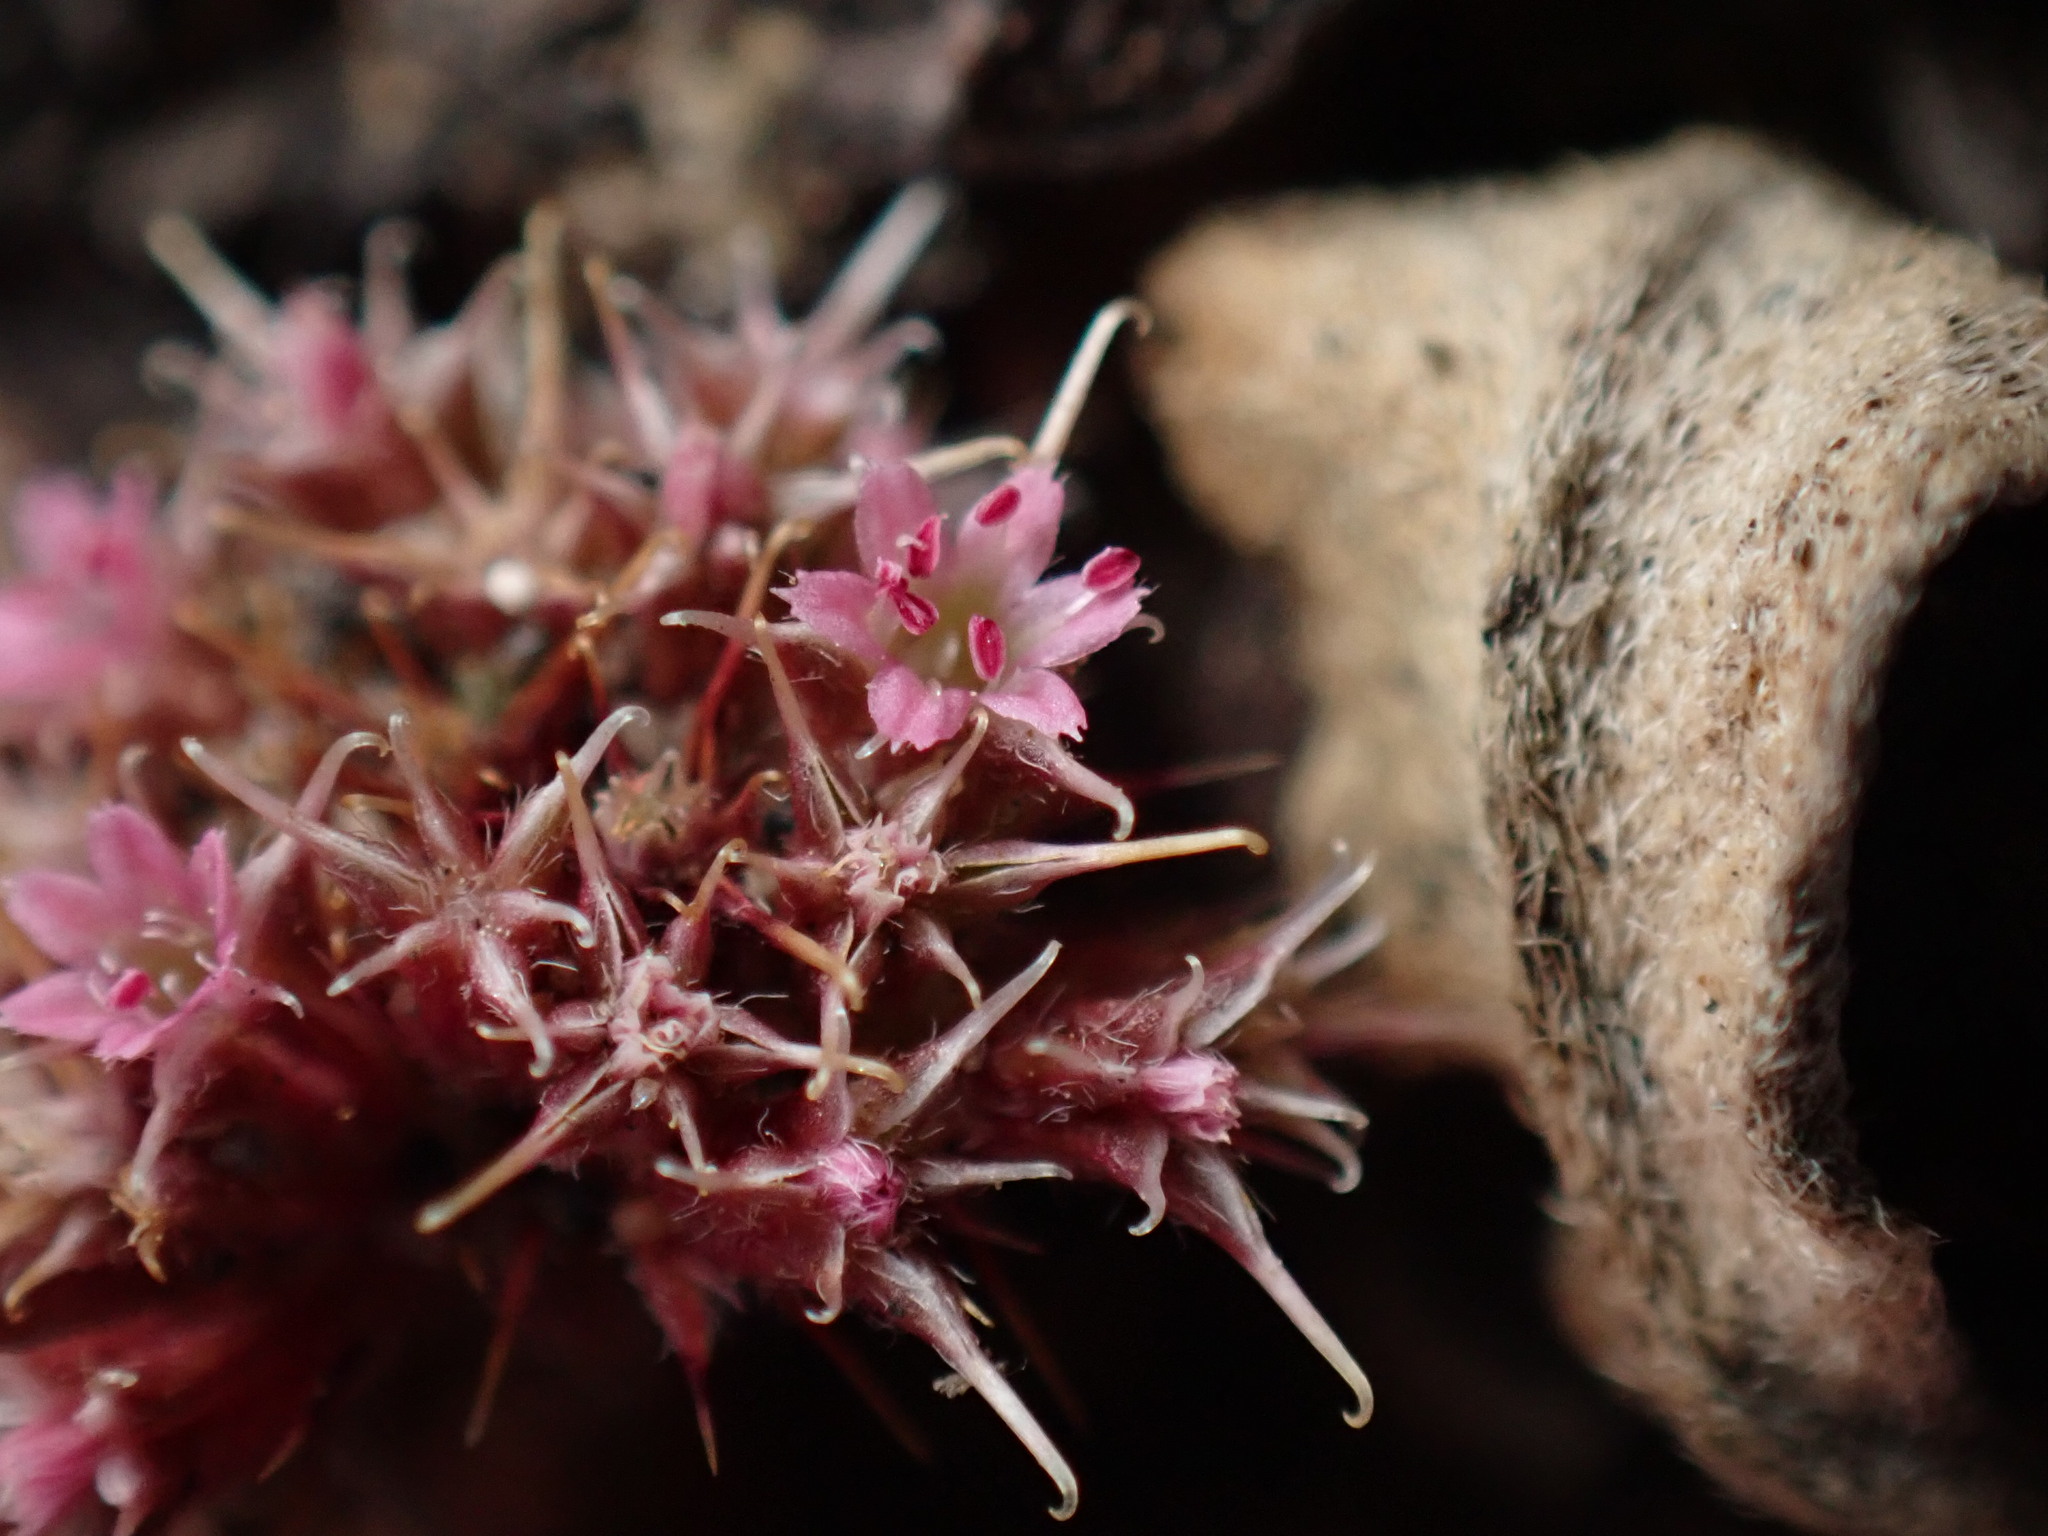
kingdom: Plantae
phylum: Tracheophyta
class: Magnoliopsida
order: Caryophyllales
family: Polygonaceae
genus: Chorizanthe
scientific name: Chorizanthe cuspidata
